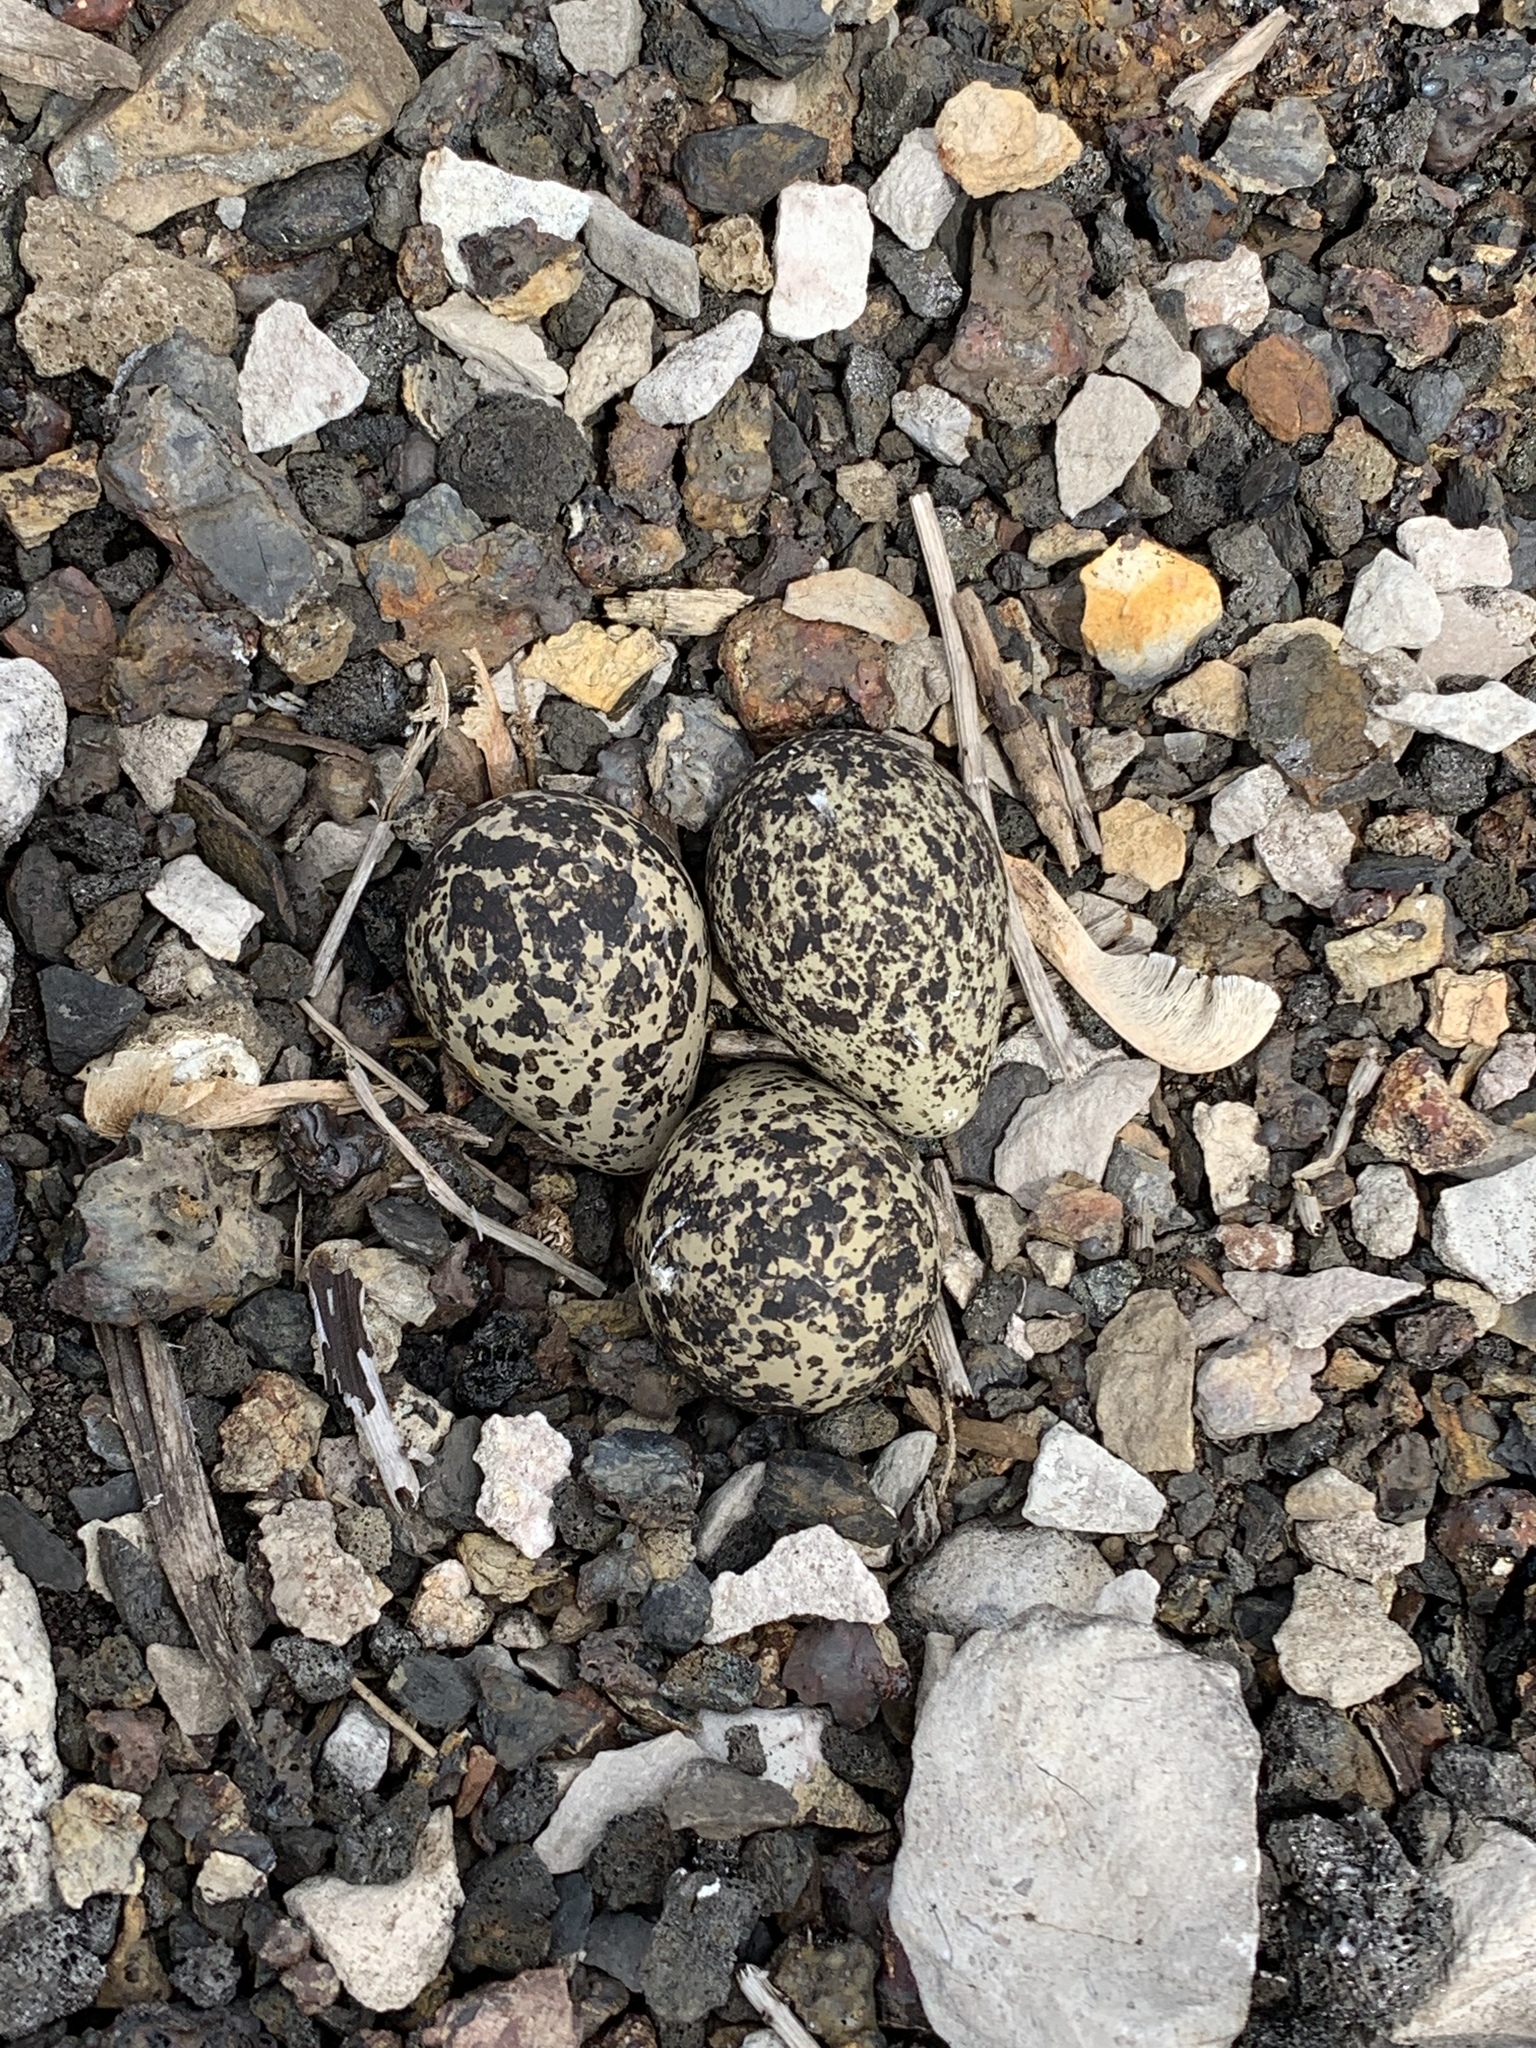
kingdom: Animalia
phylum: Chordata
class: Aves
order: Charadriiformes
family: Charadriidae
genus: Charadrius
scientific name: Charadrius vociferus
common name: Killdeer
